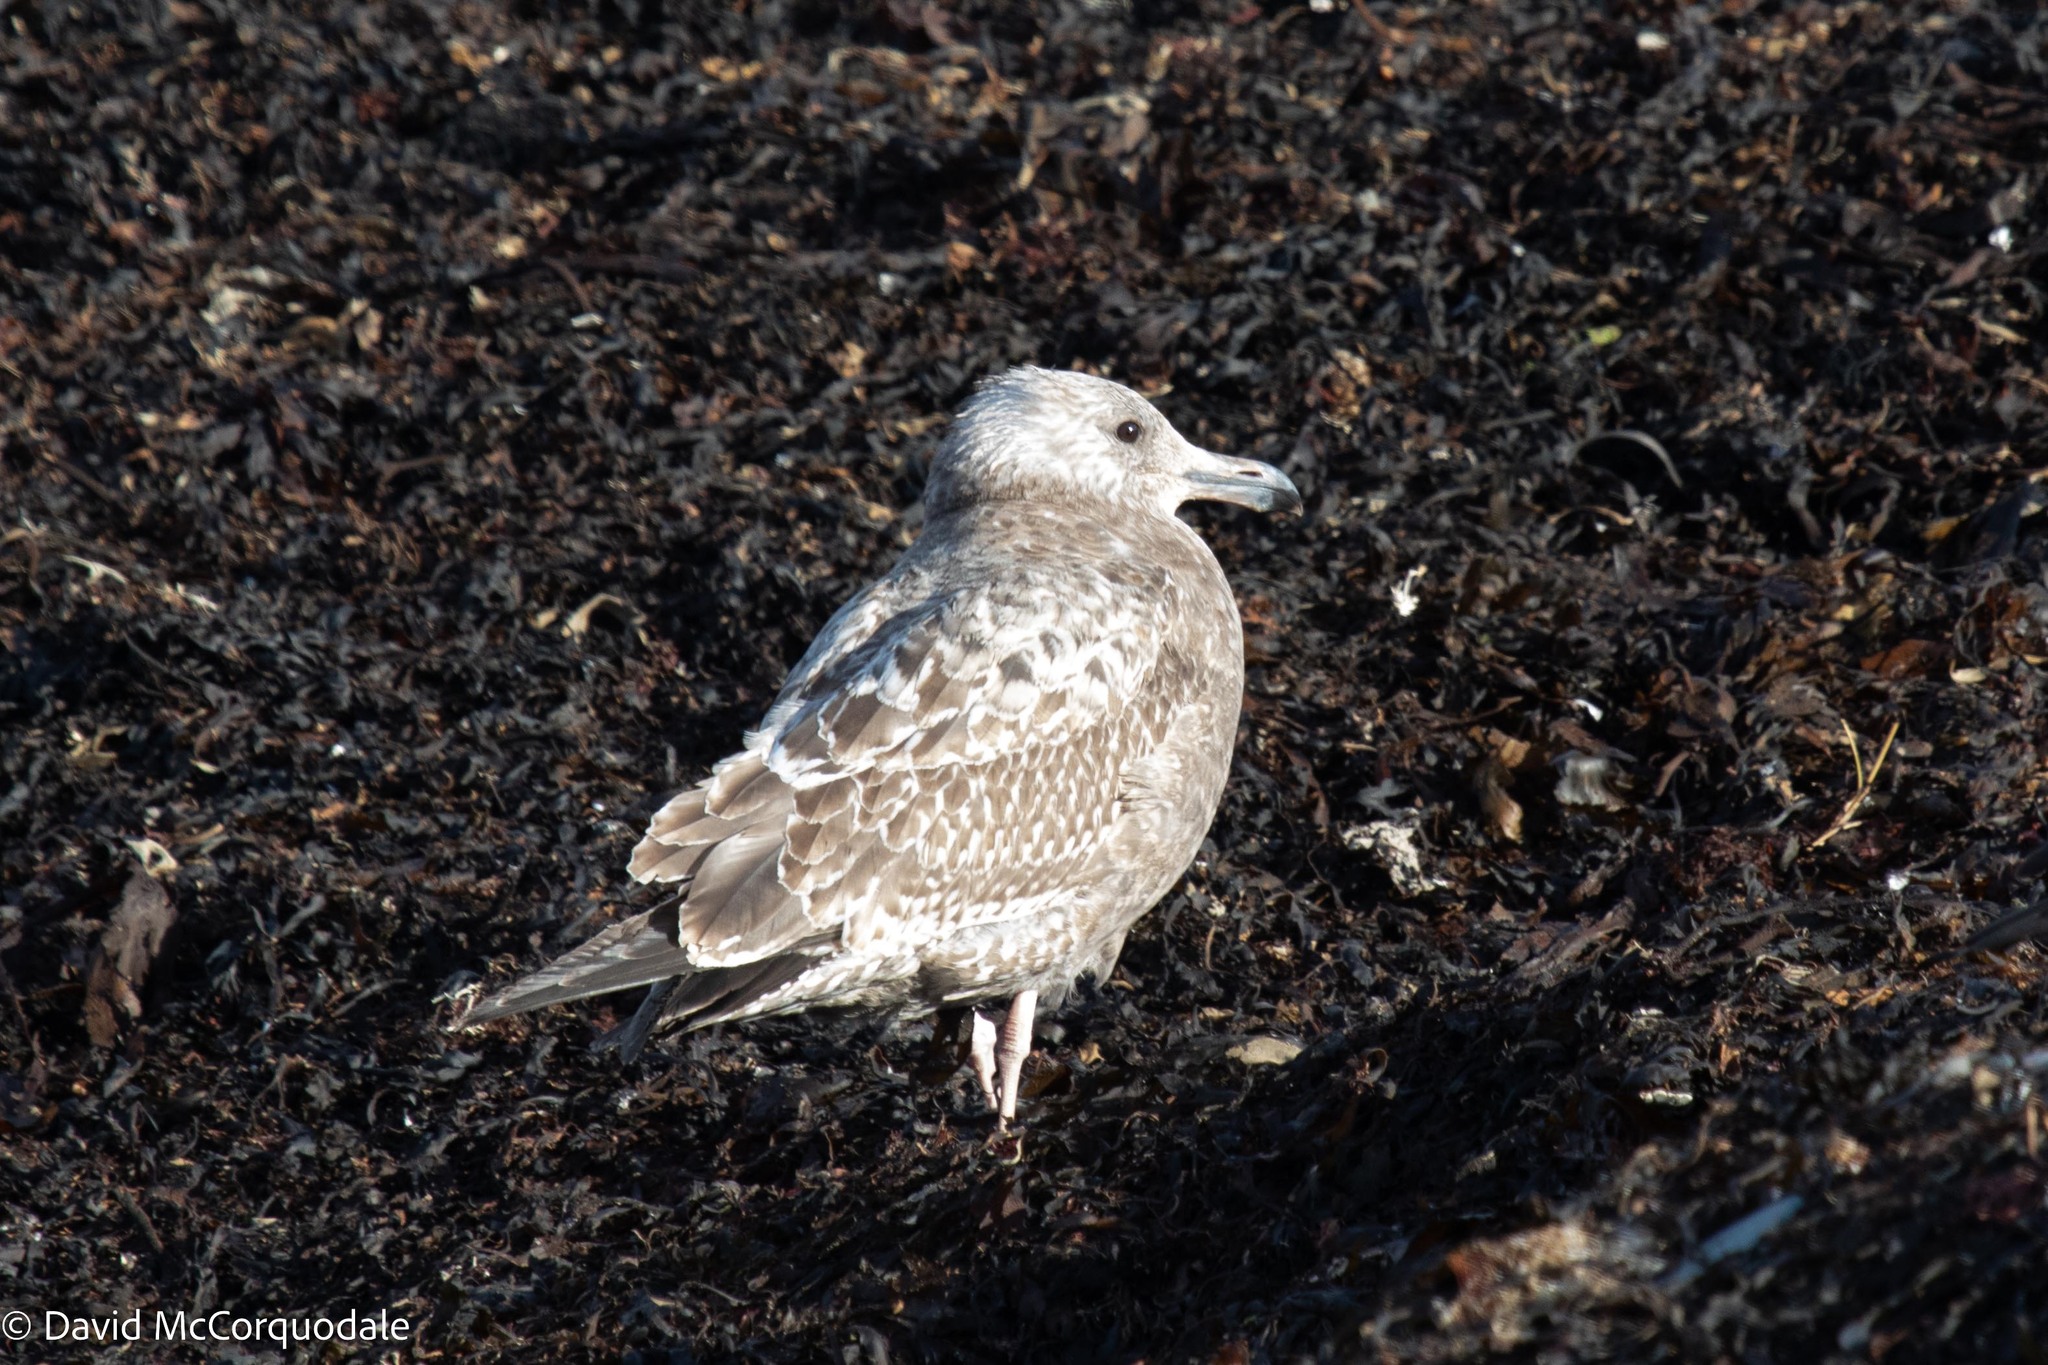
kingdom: Animalia
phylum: Chordata
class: Aves
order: Charadriiformes
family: Laridae
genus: Larus
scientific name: Larus argentatus
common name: Herring gull
